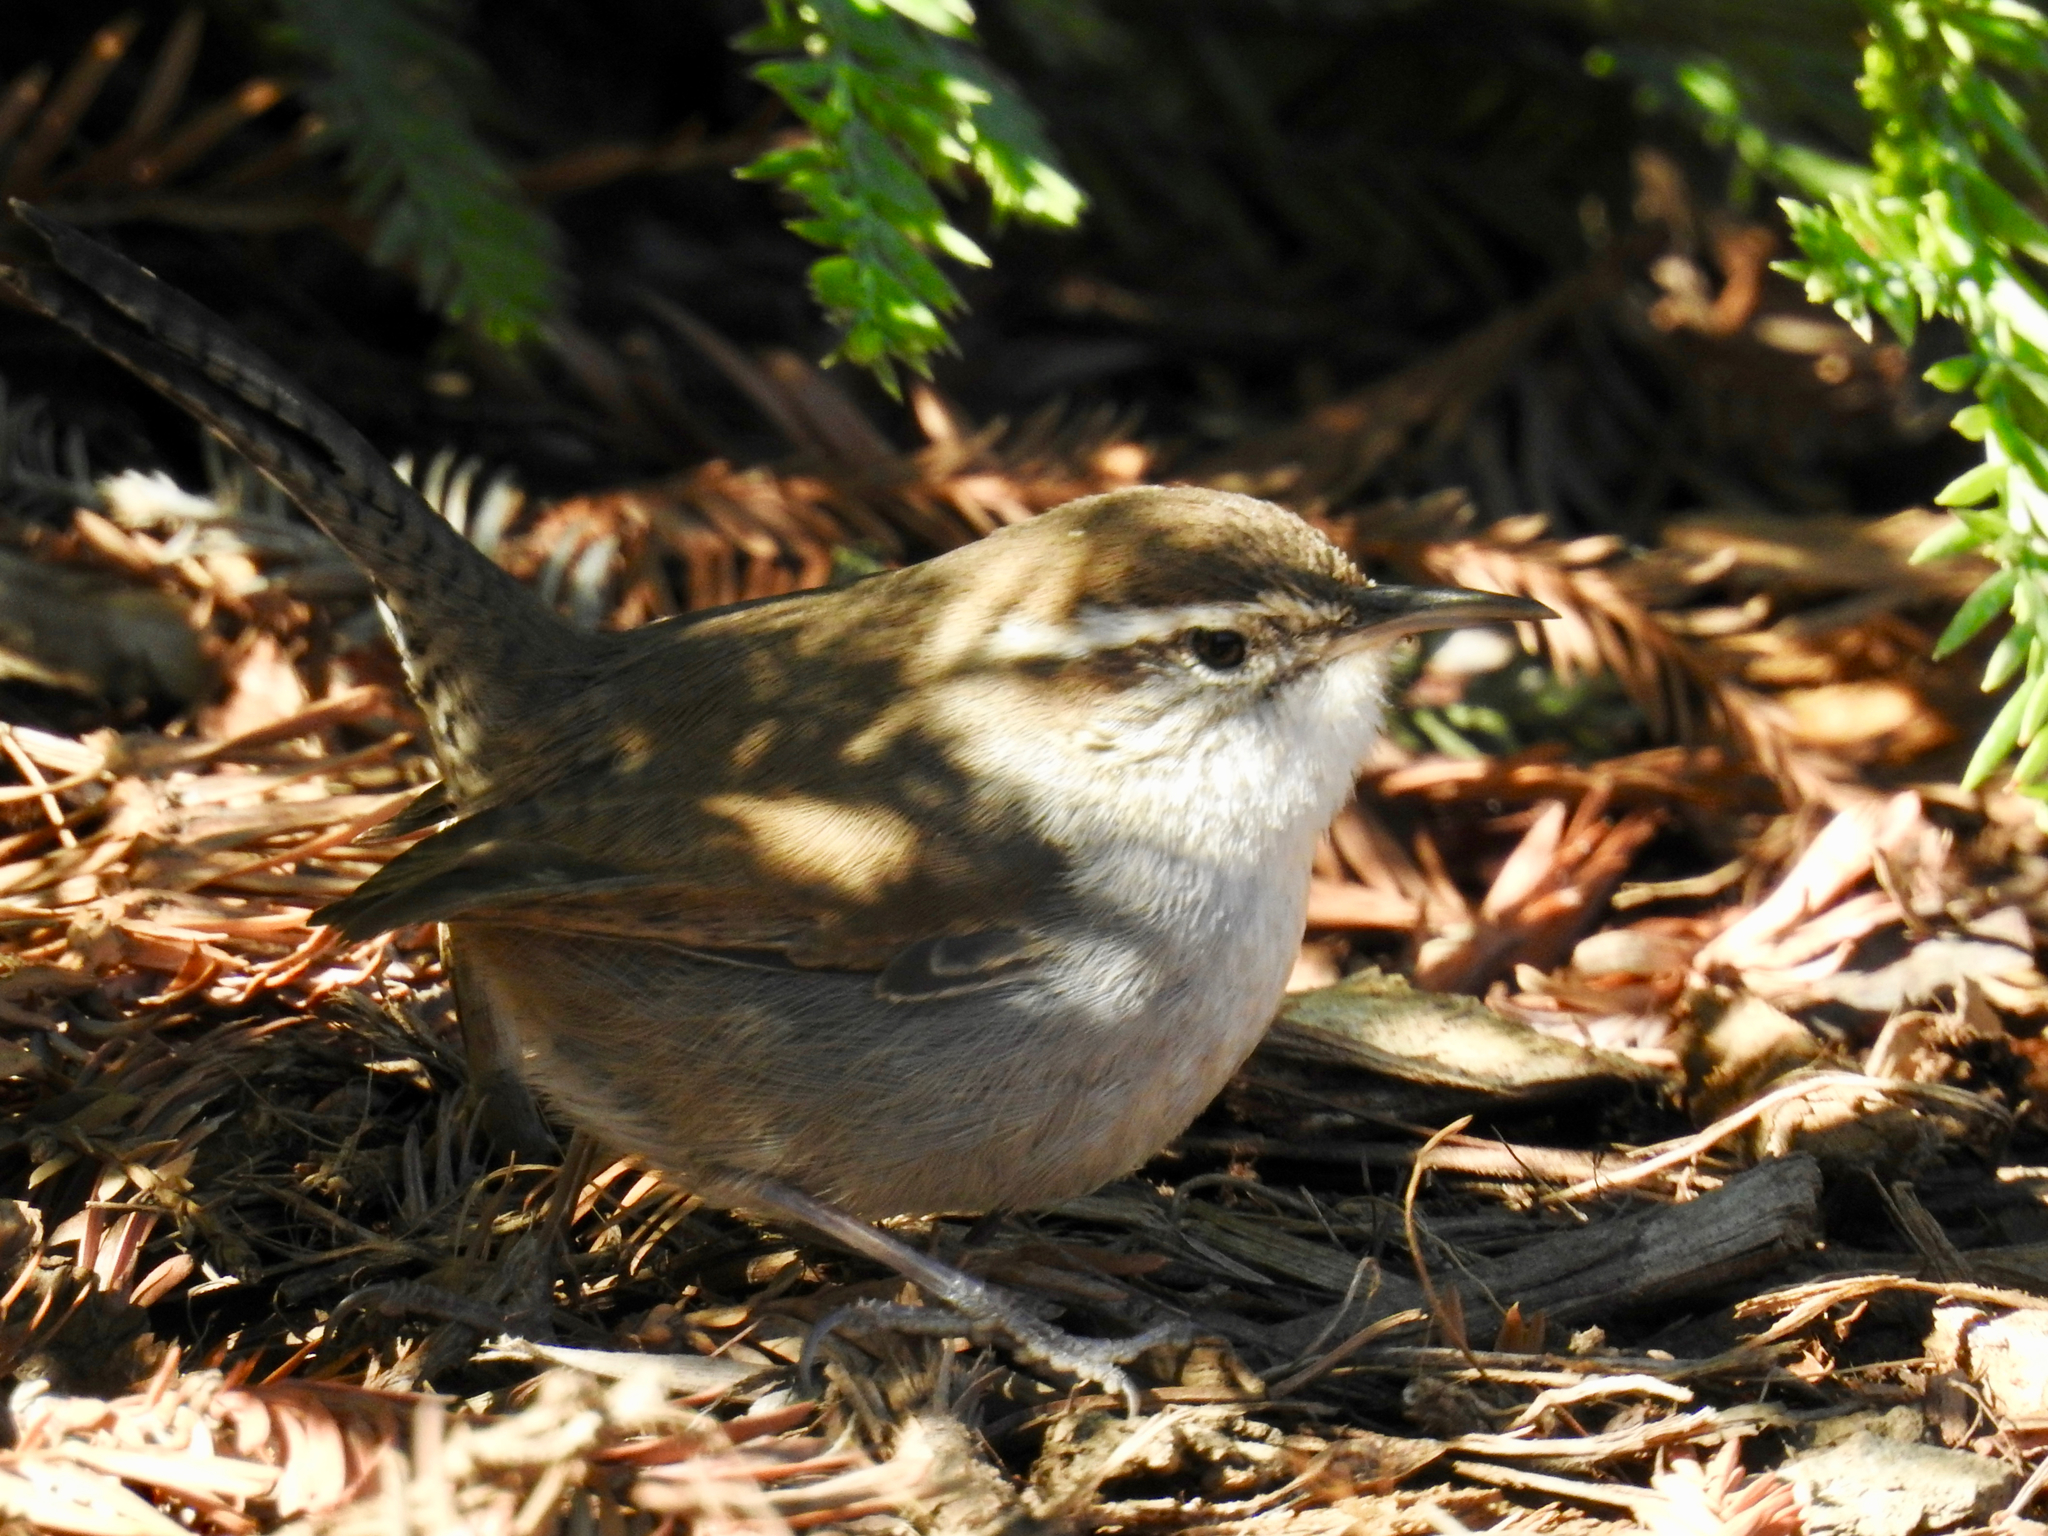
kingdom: Animalia
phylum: Chordata
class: Aves
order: Passeriformes
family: Troglodytidae
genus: Thryomanes
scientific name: Thryomanes bewickii
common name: Bewick's wren
